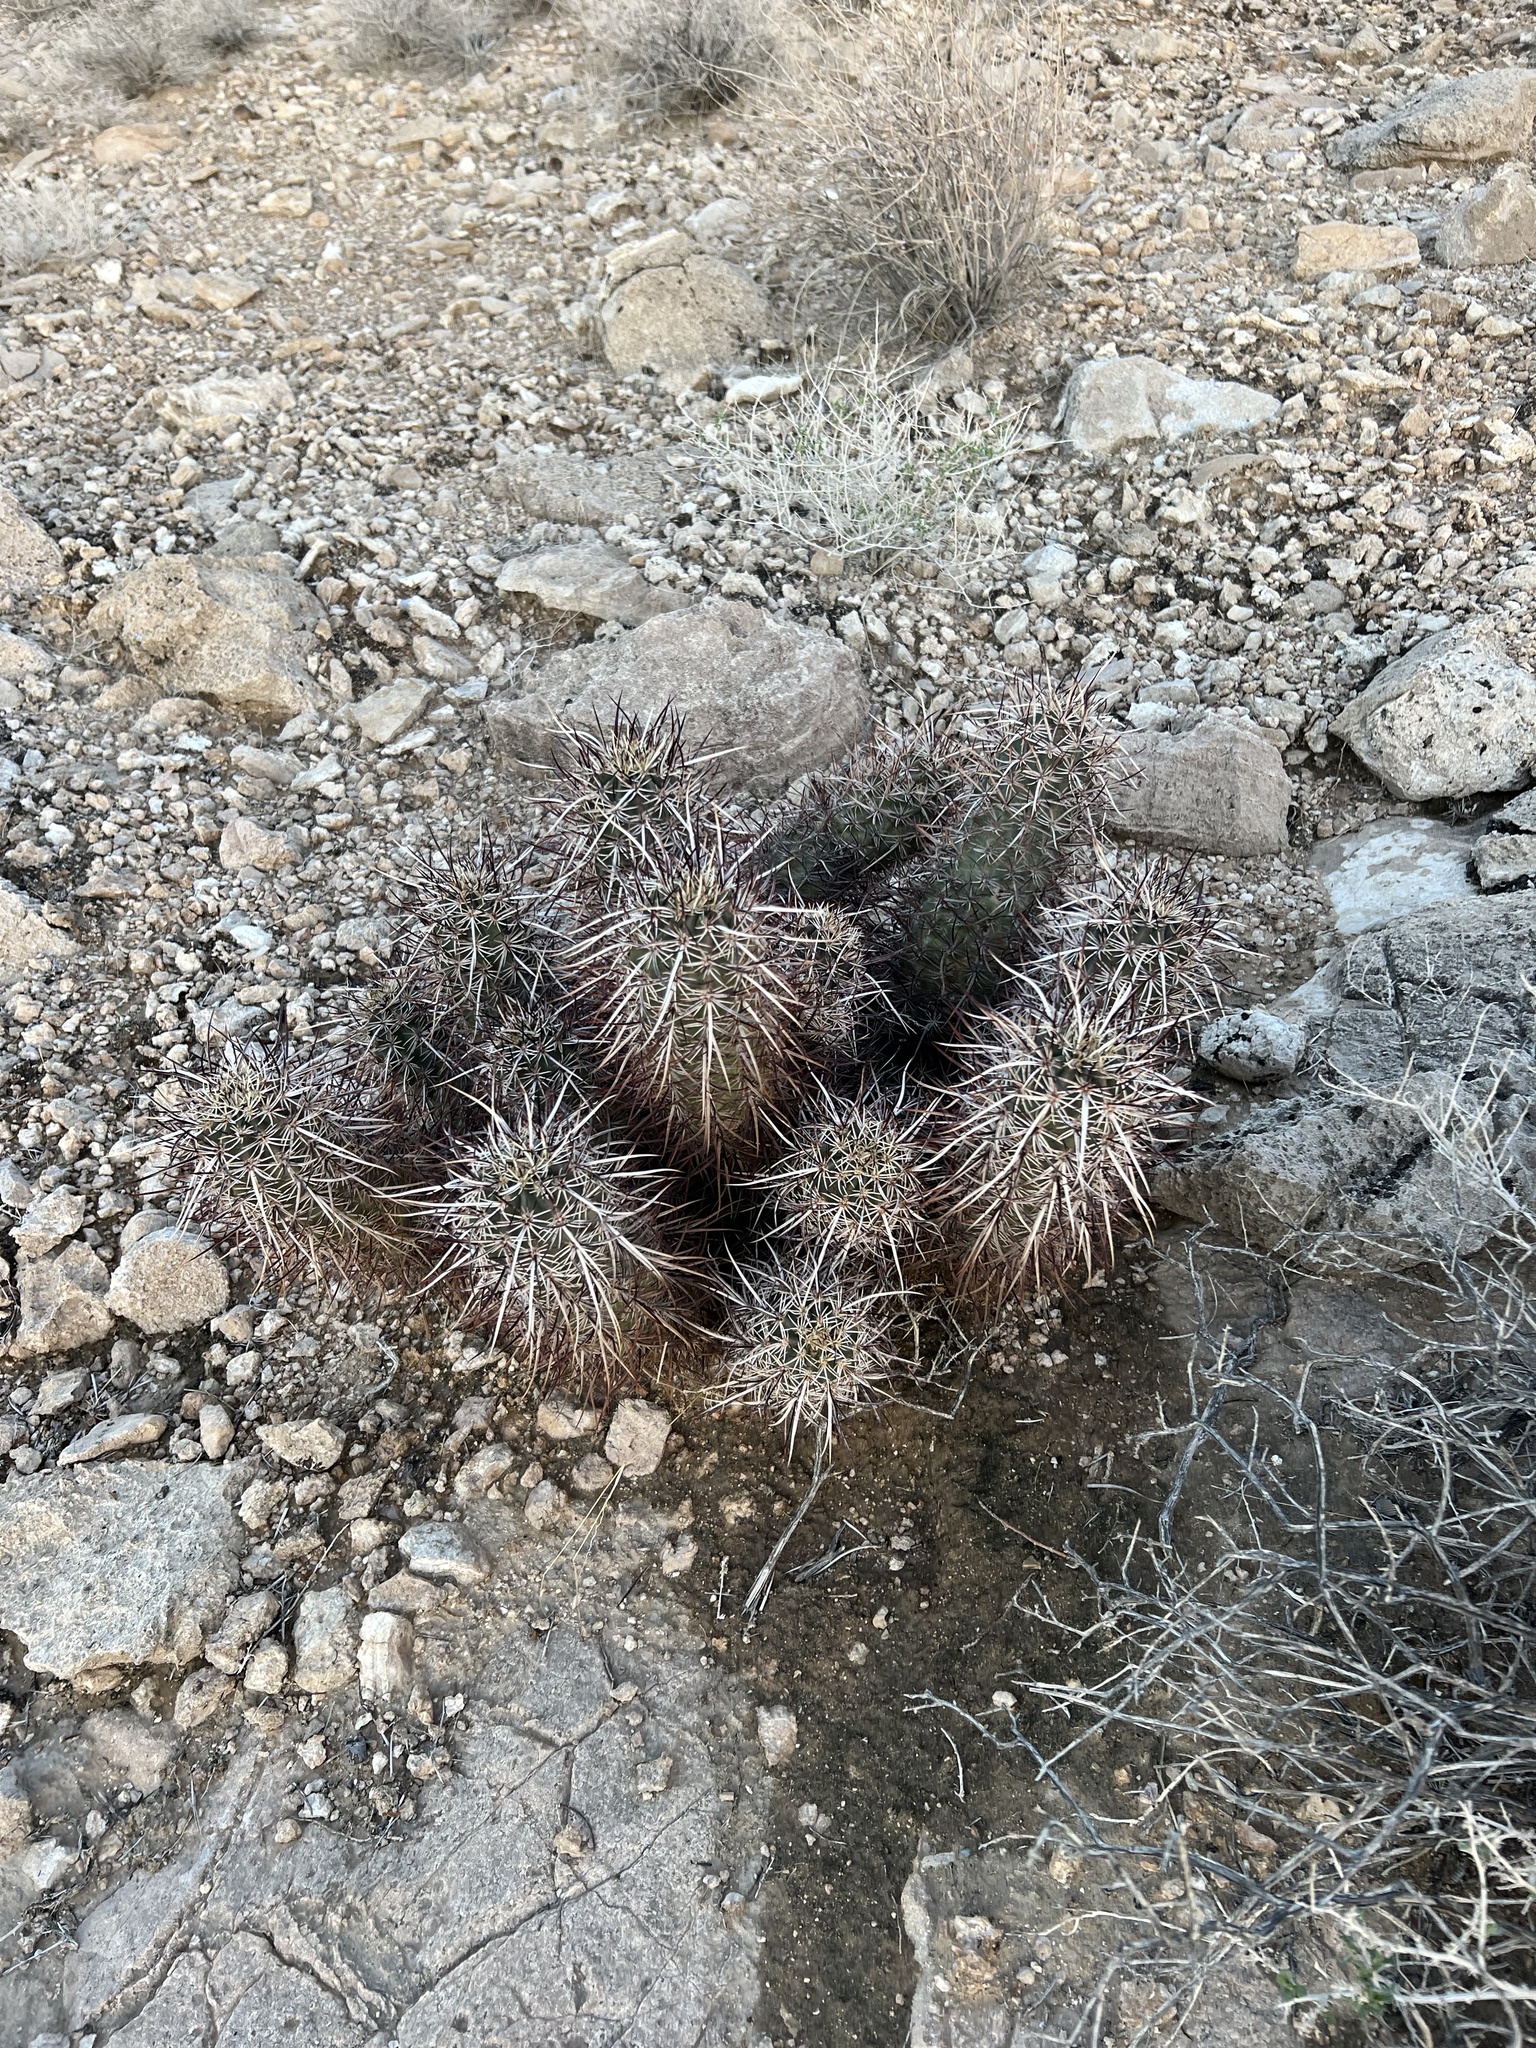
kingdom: Plantae
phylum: Tracheophyta
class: Magnoliopsida
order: Caryophyllales
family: Cactaceae
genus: Echinocereus
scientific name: Echinocereus engelmannii
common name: Engelmann's hedgehog cactus
